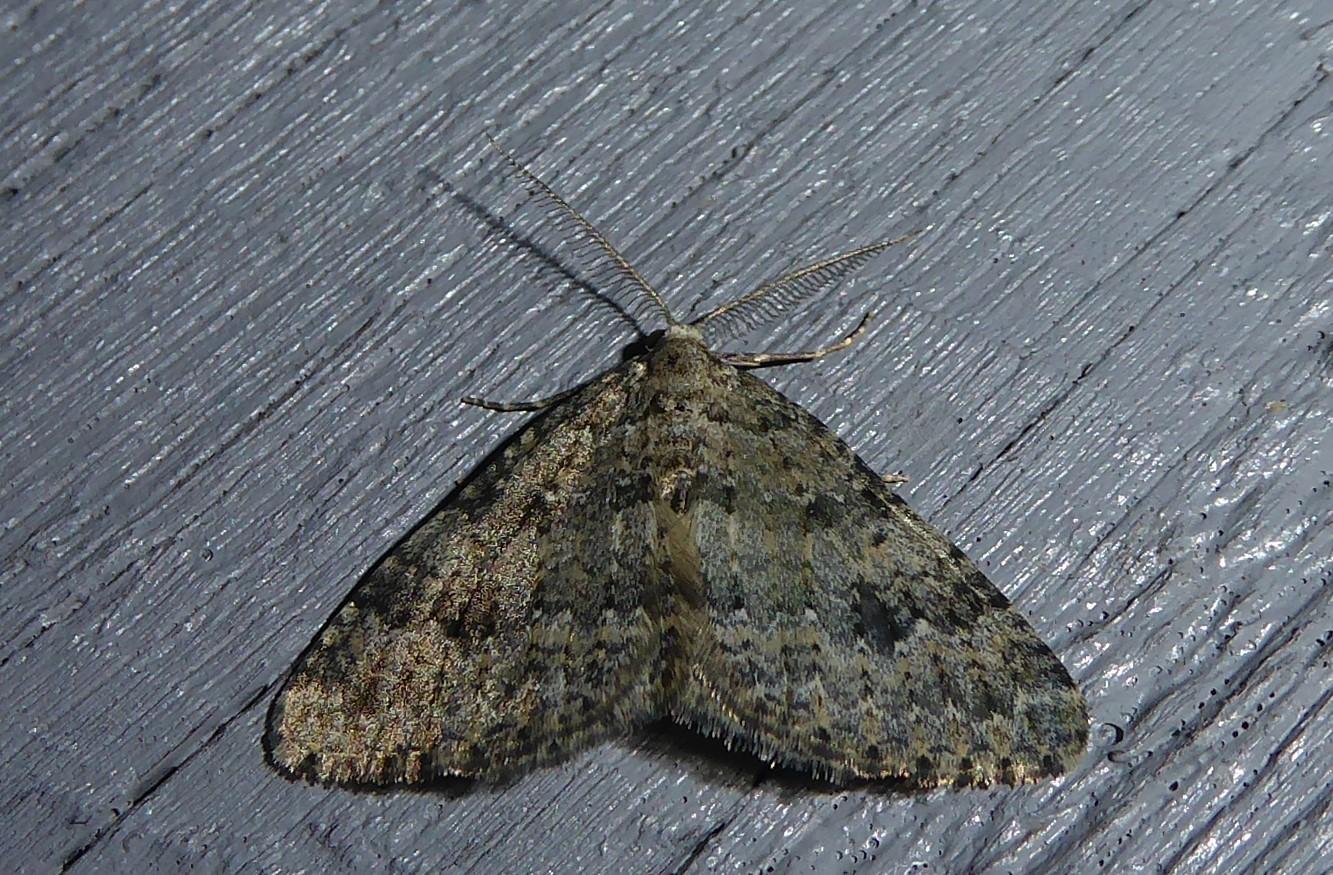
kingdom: Animalia
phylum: Arthropoda
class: Insecta
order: Lepidoptera
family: Geometridae
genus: Helastia
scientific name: Helastia corcularia
